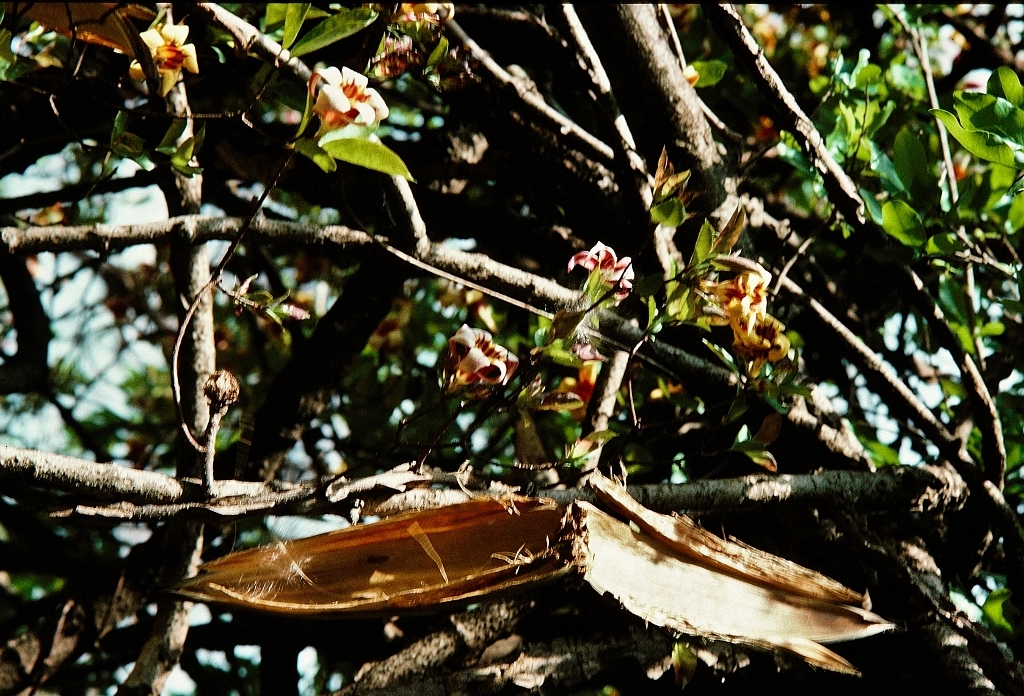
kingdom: Plantae
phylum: Tracheophyta
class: Magnoliopsida
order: Gentianales
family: Apocynaceae
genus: Strophanthus
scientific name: Strophanthus courmontii
